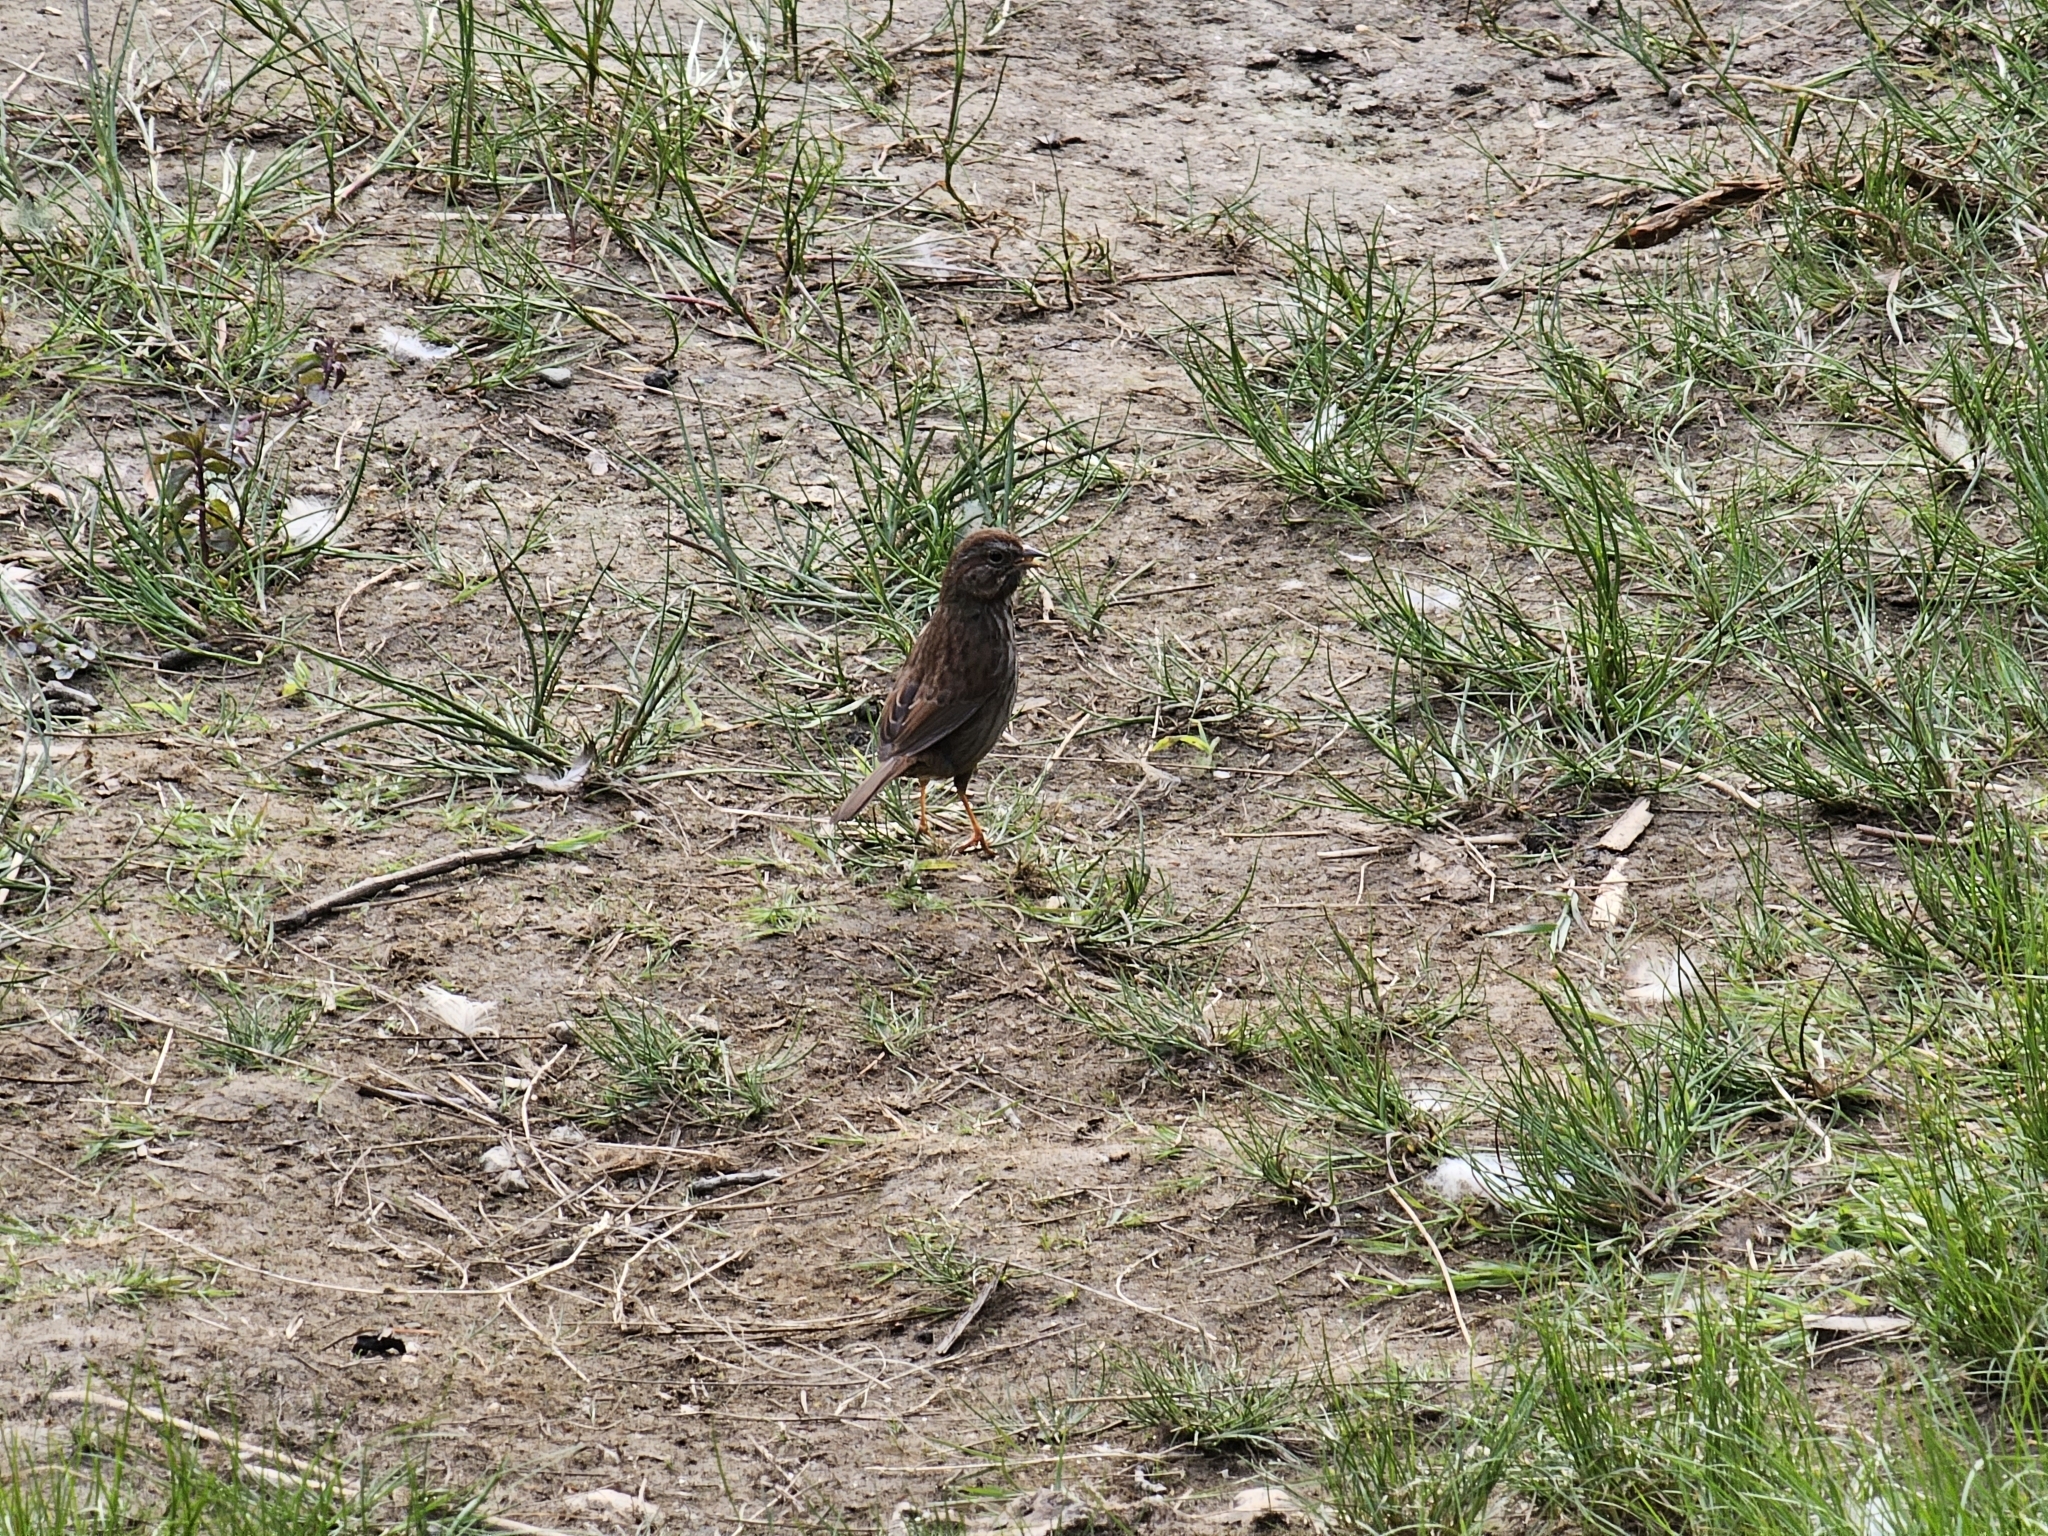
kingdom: Animalia
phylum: Chordata
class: Aves
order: Passeriformes
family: Passerellidae
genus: Melospiza
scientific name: Melospiza melodia
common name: Song sparrow
